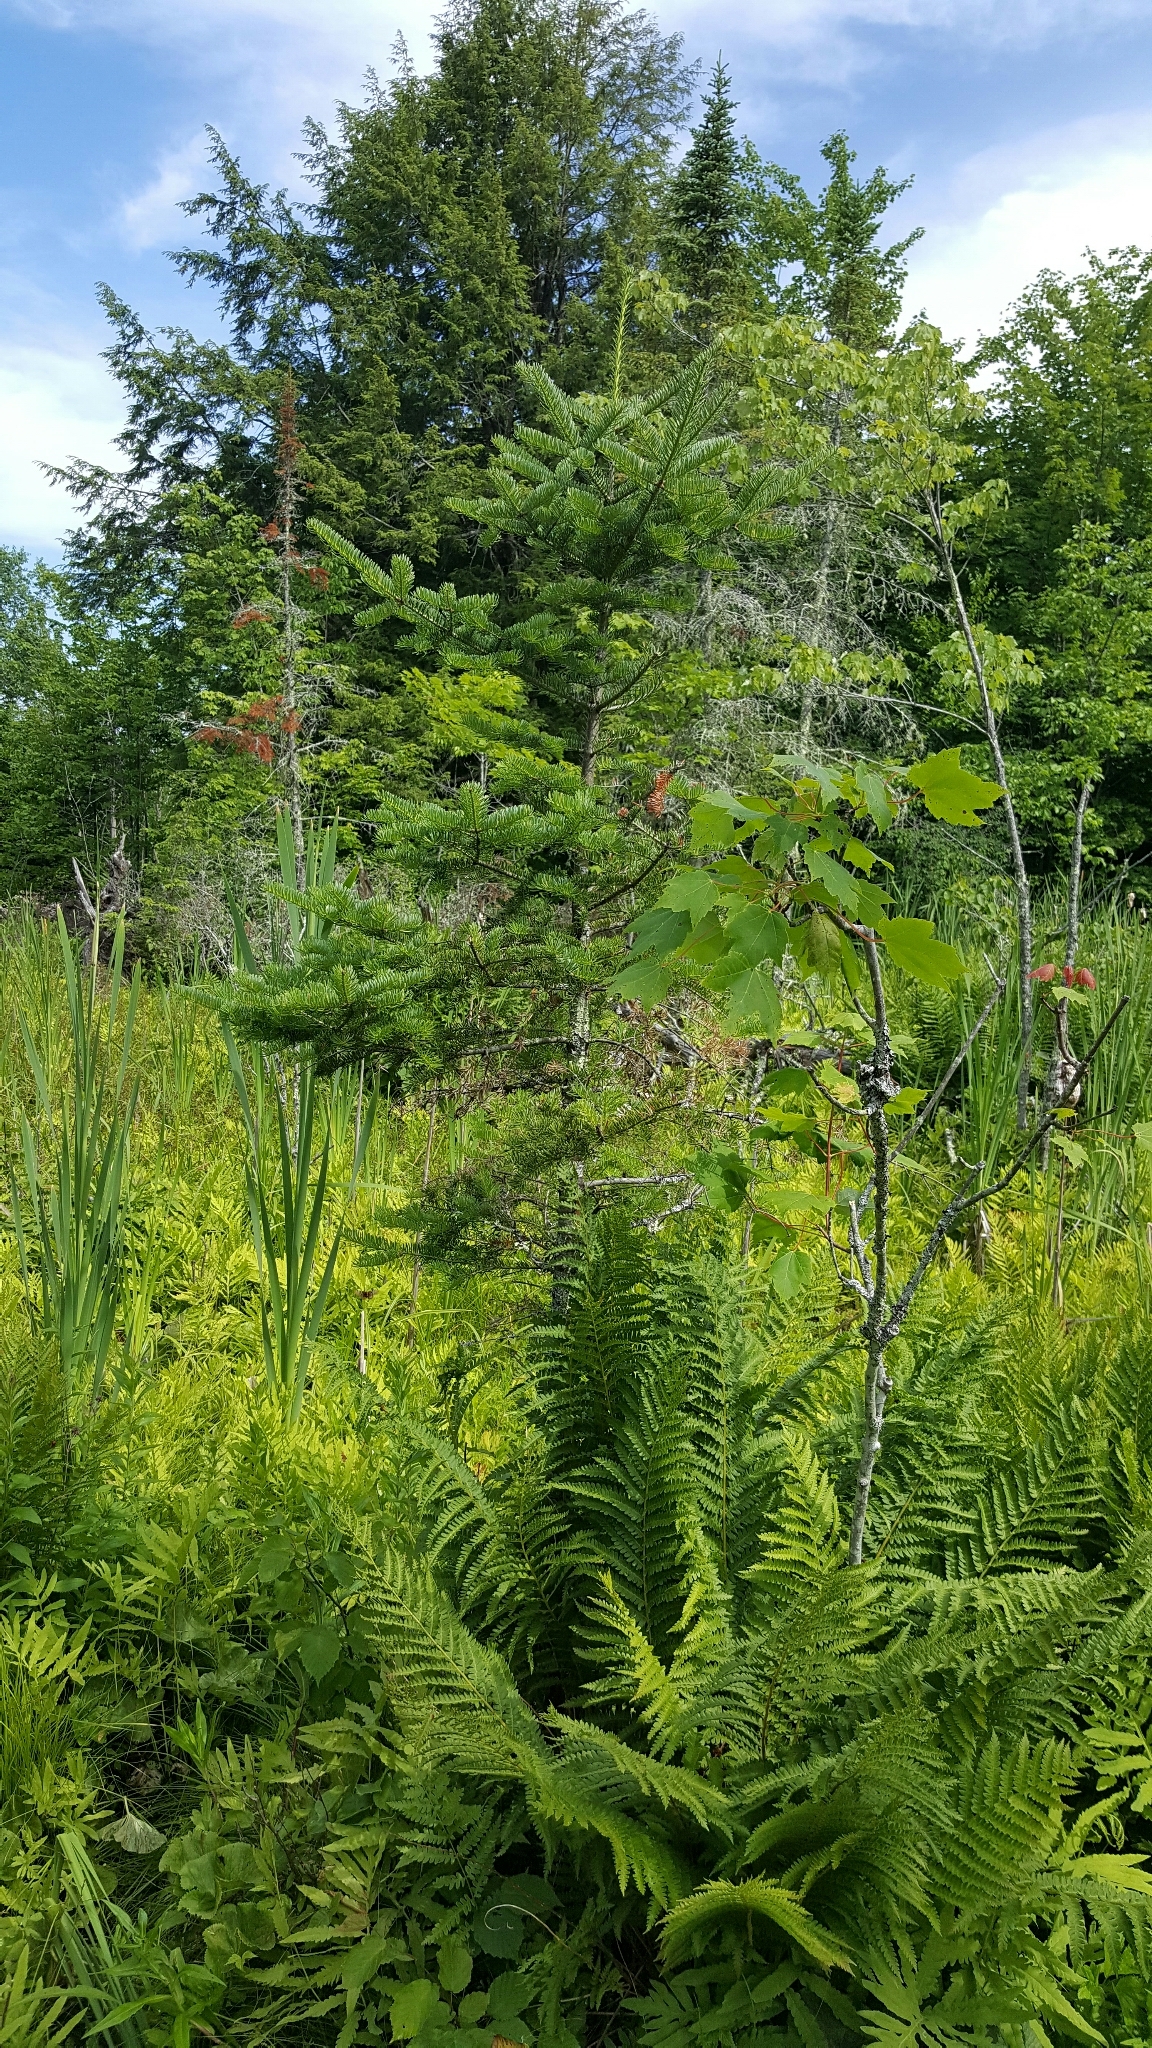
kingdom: Plantae
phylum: Tracheophyta
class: Pinopsida
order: Pinales
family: Pinaceae
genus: Abies
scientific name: Abies balsamea
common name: Balsam fir
